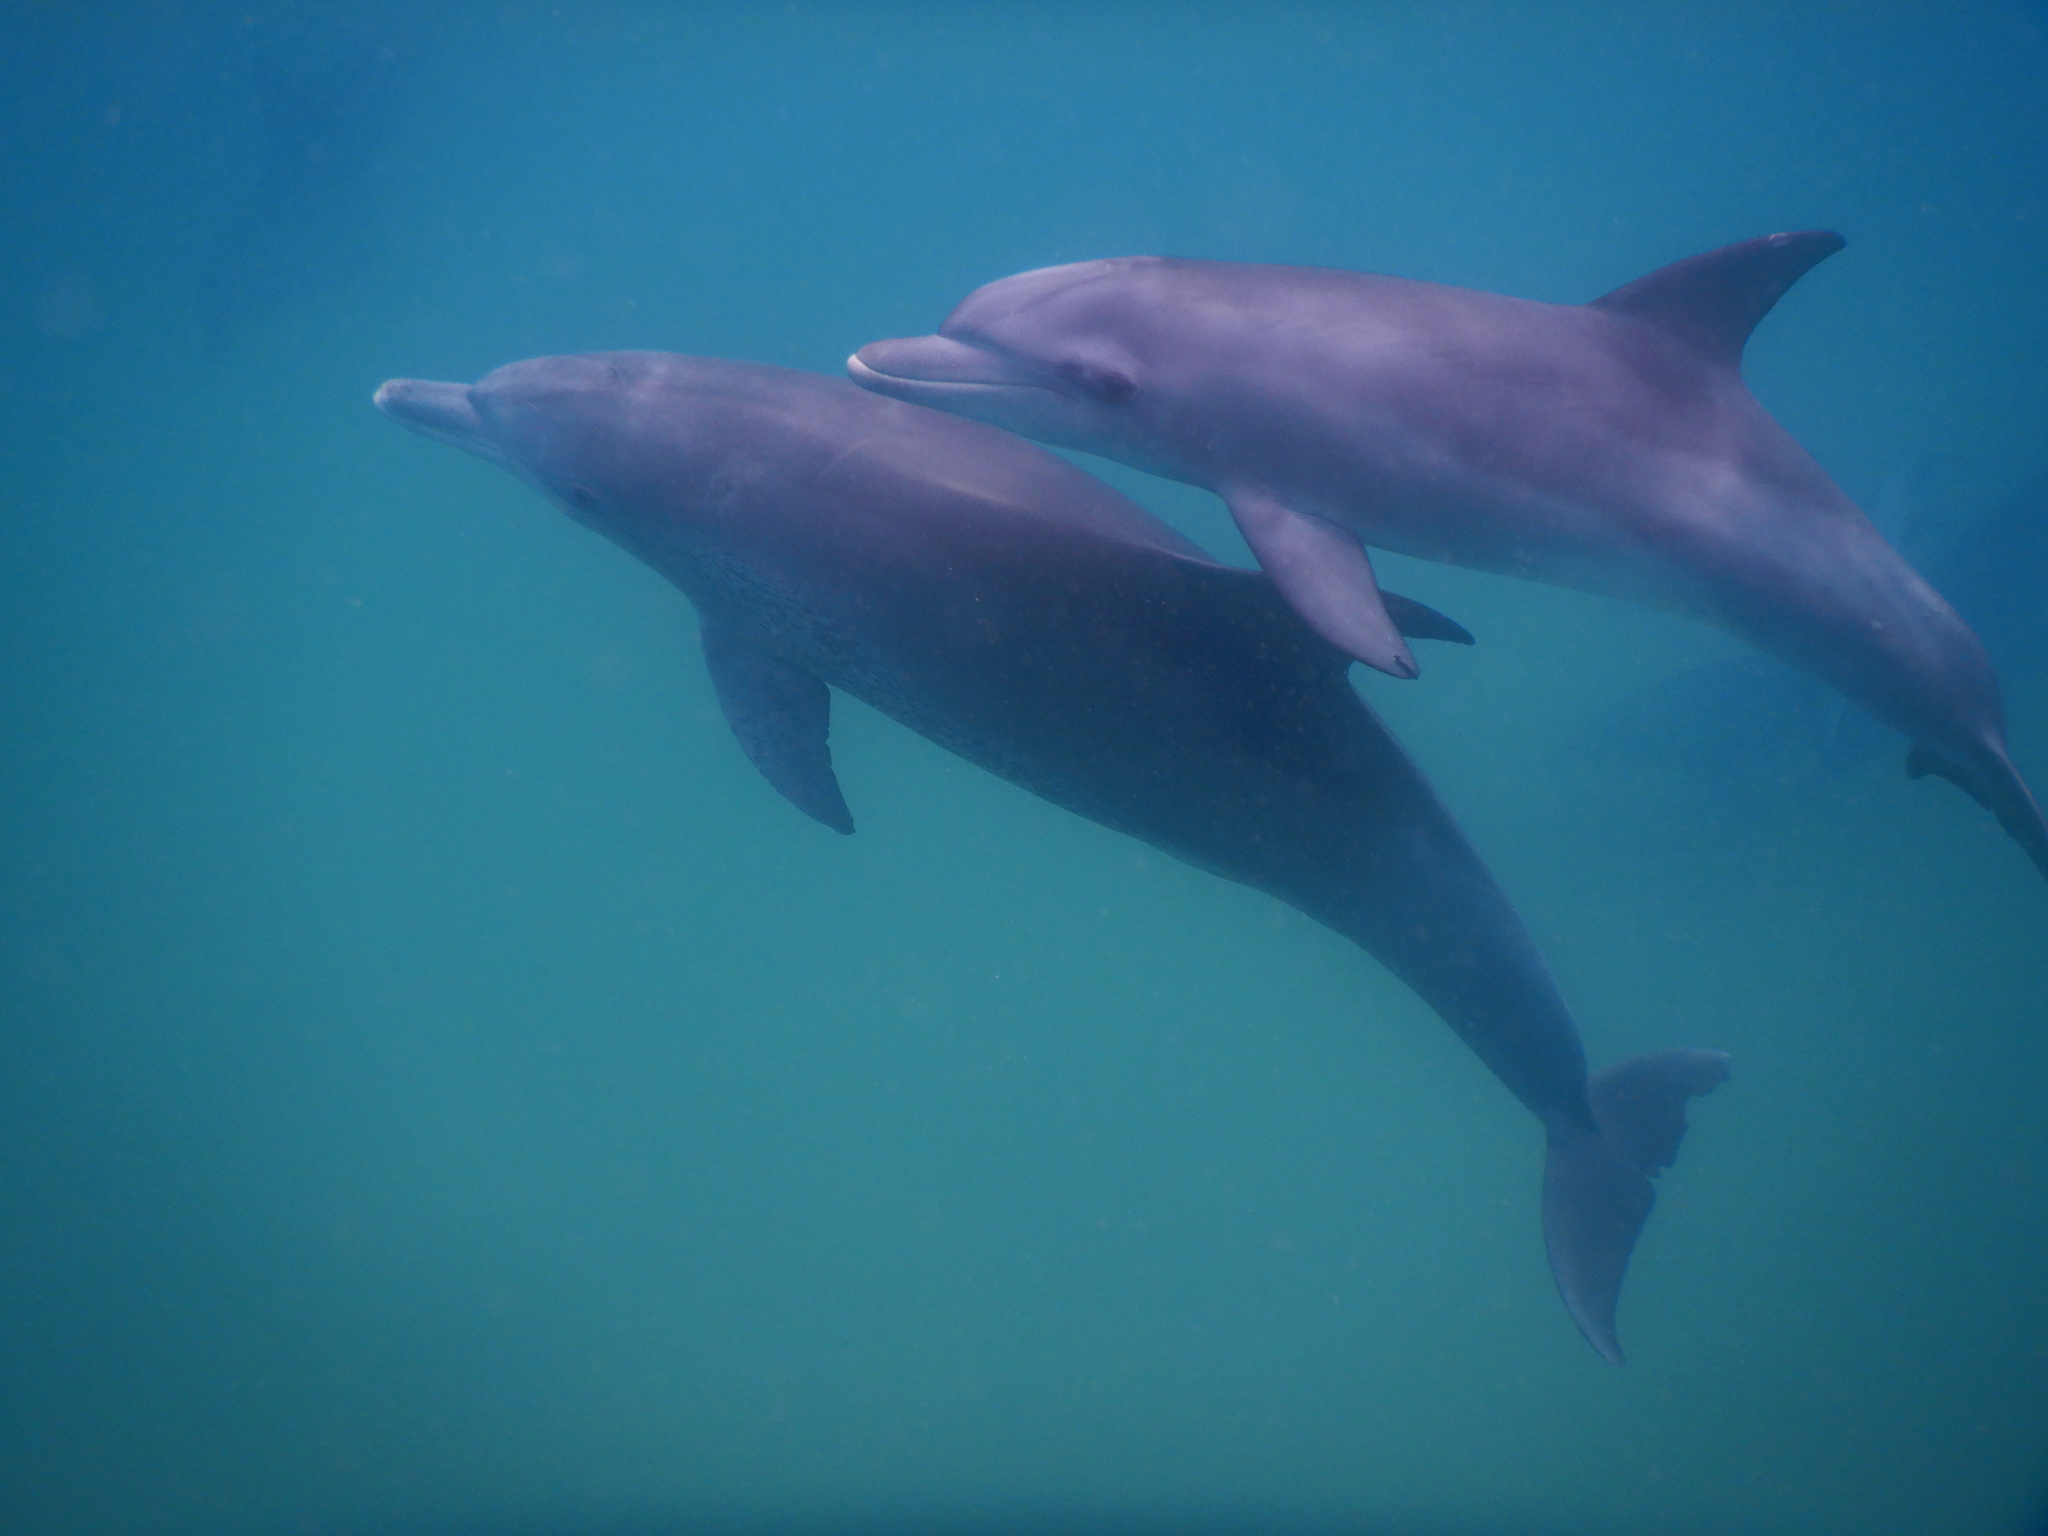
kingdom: Animalia
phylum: Chordata
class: Mammalia
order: Cetacea
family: Delphinidae
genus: Tursiops
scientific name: Tursiops aduncus
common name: Indo-pacific bottlenose dolphin
